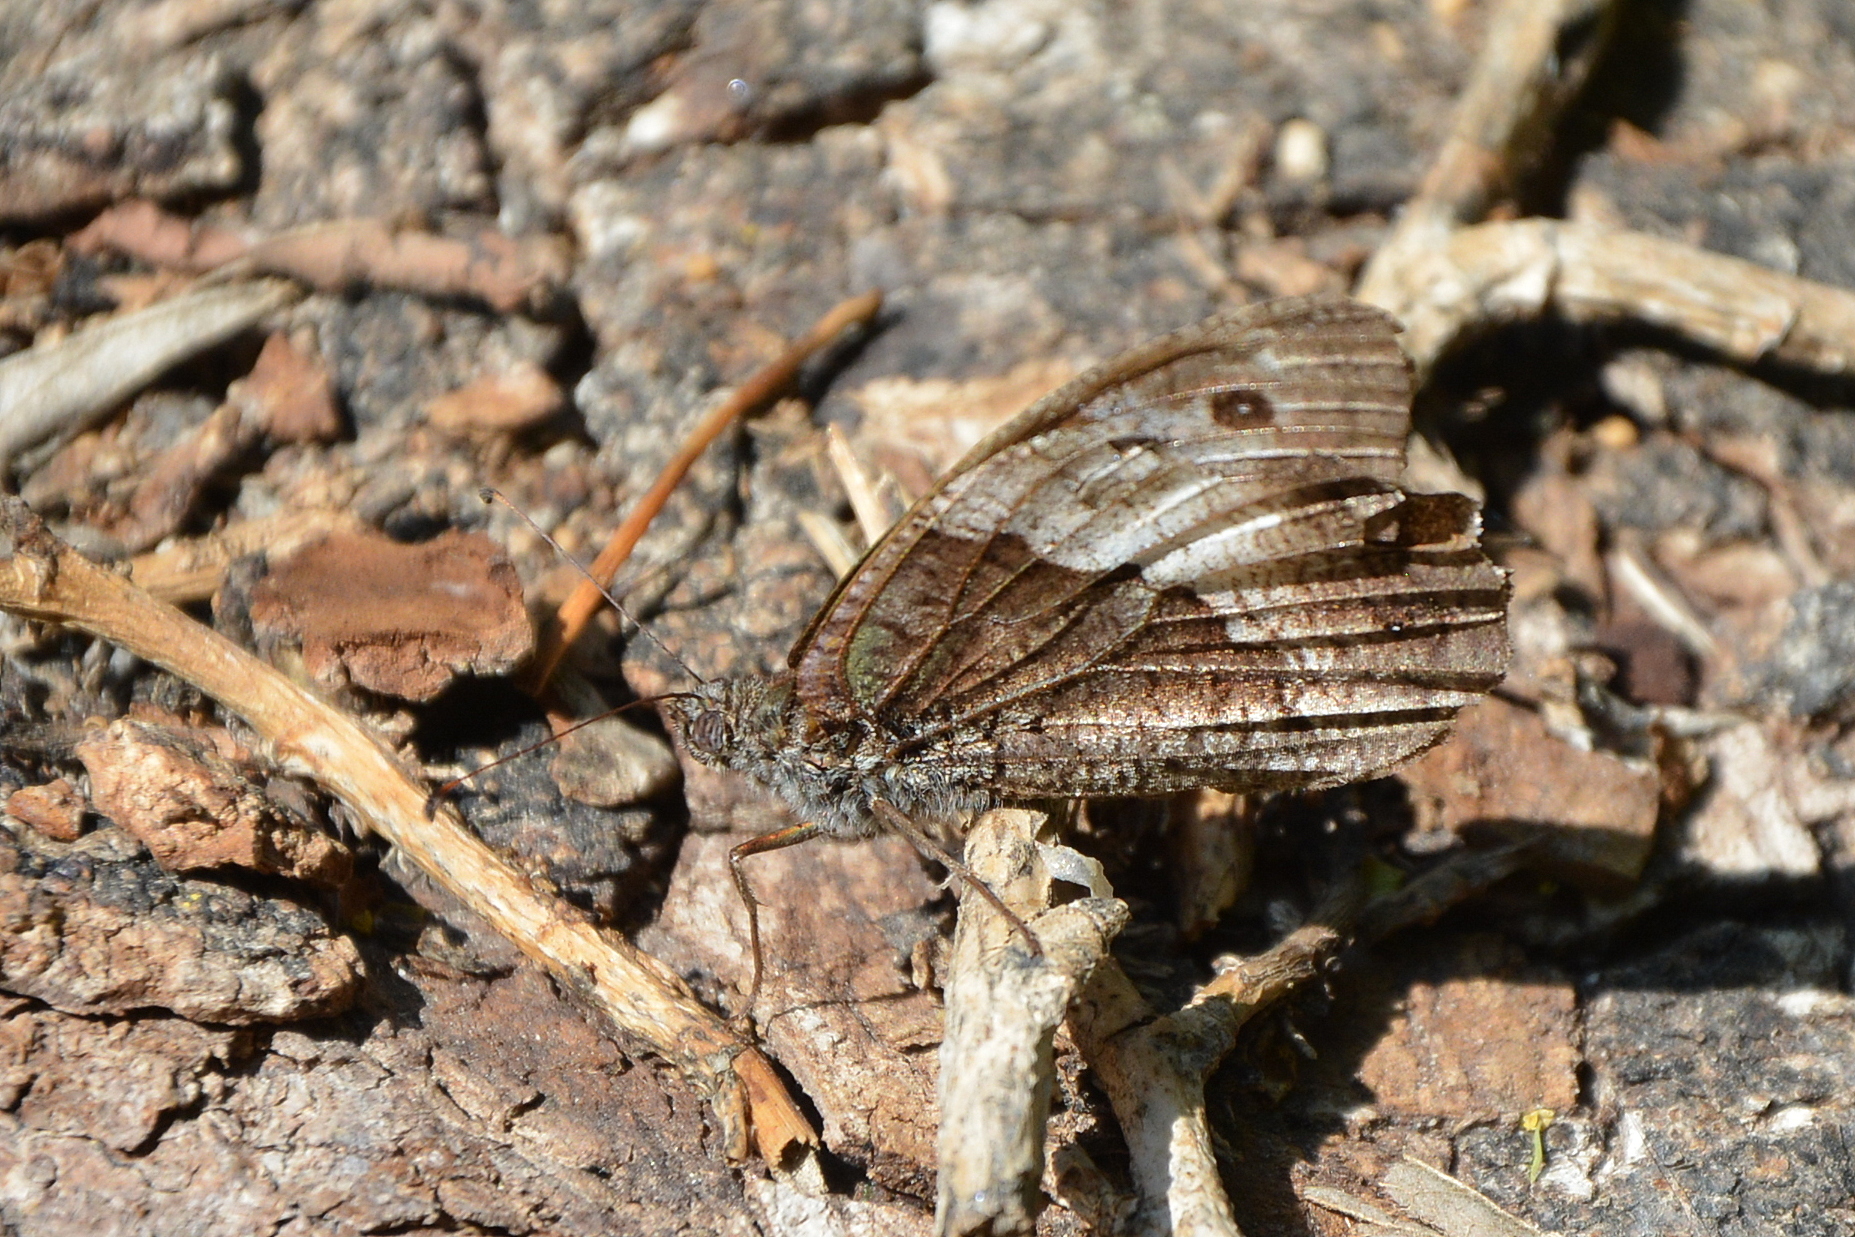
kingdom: Animalia
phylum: Arthropoda
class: Insecta
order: Lepidoptera
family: Nymphalidae
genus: Hipparchia
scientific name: Hipparchia syriaca
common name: Eastern rock grayling
